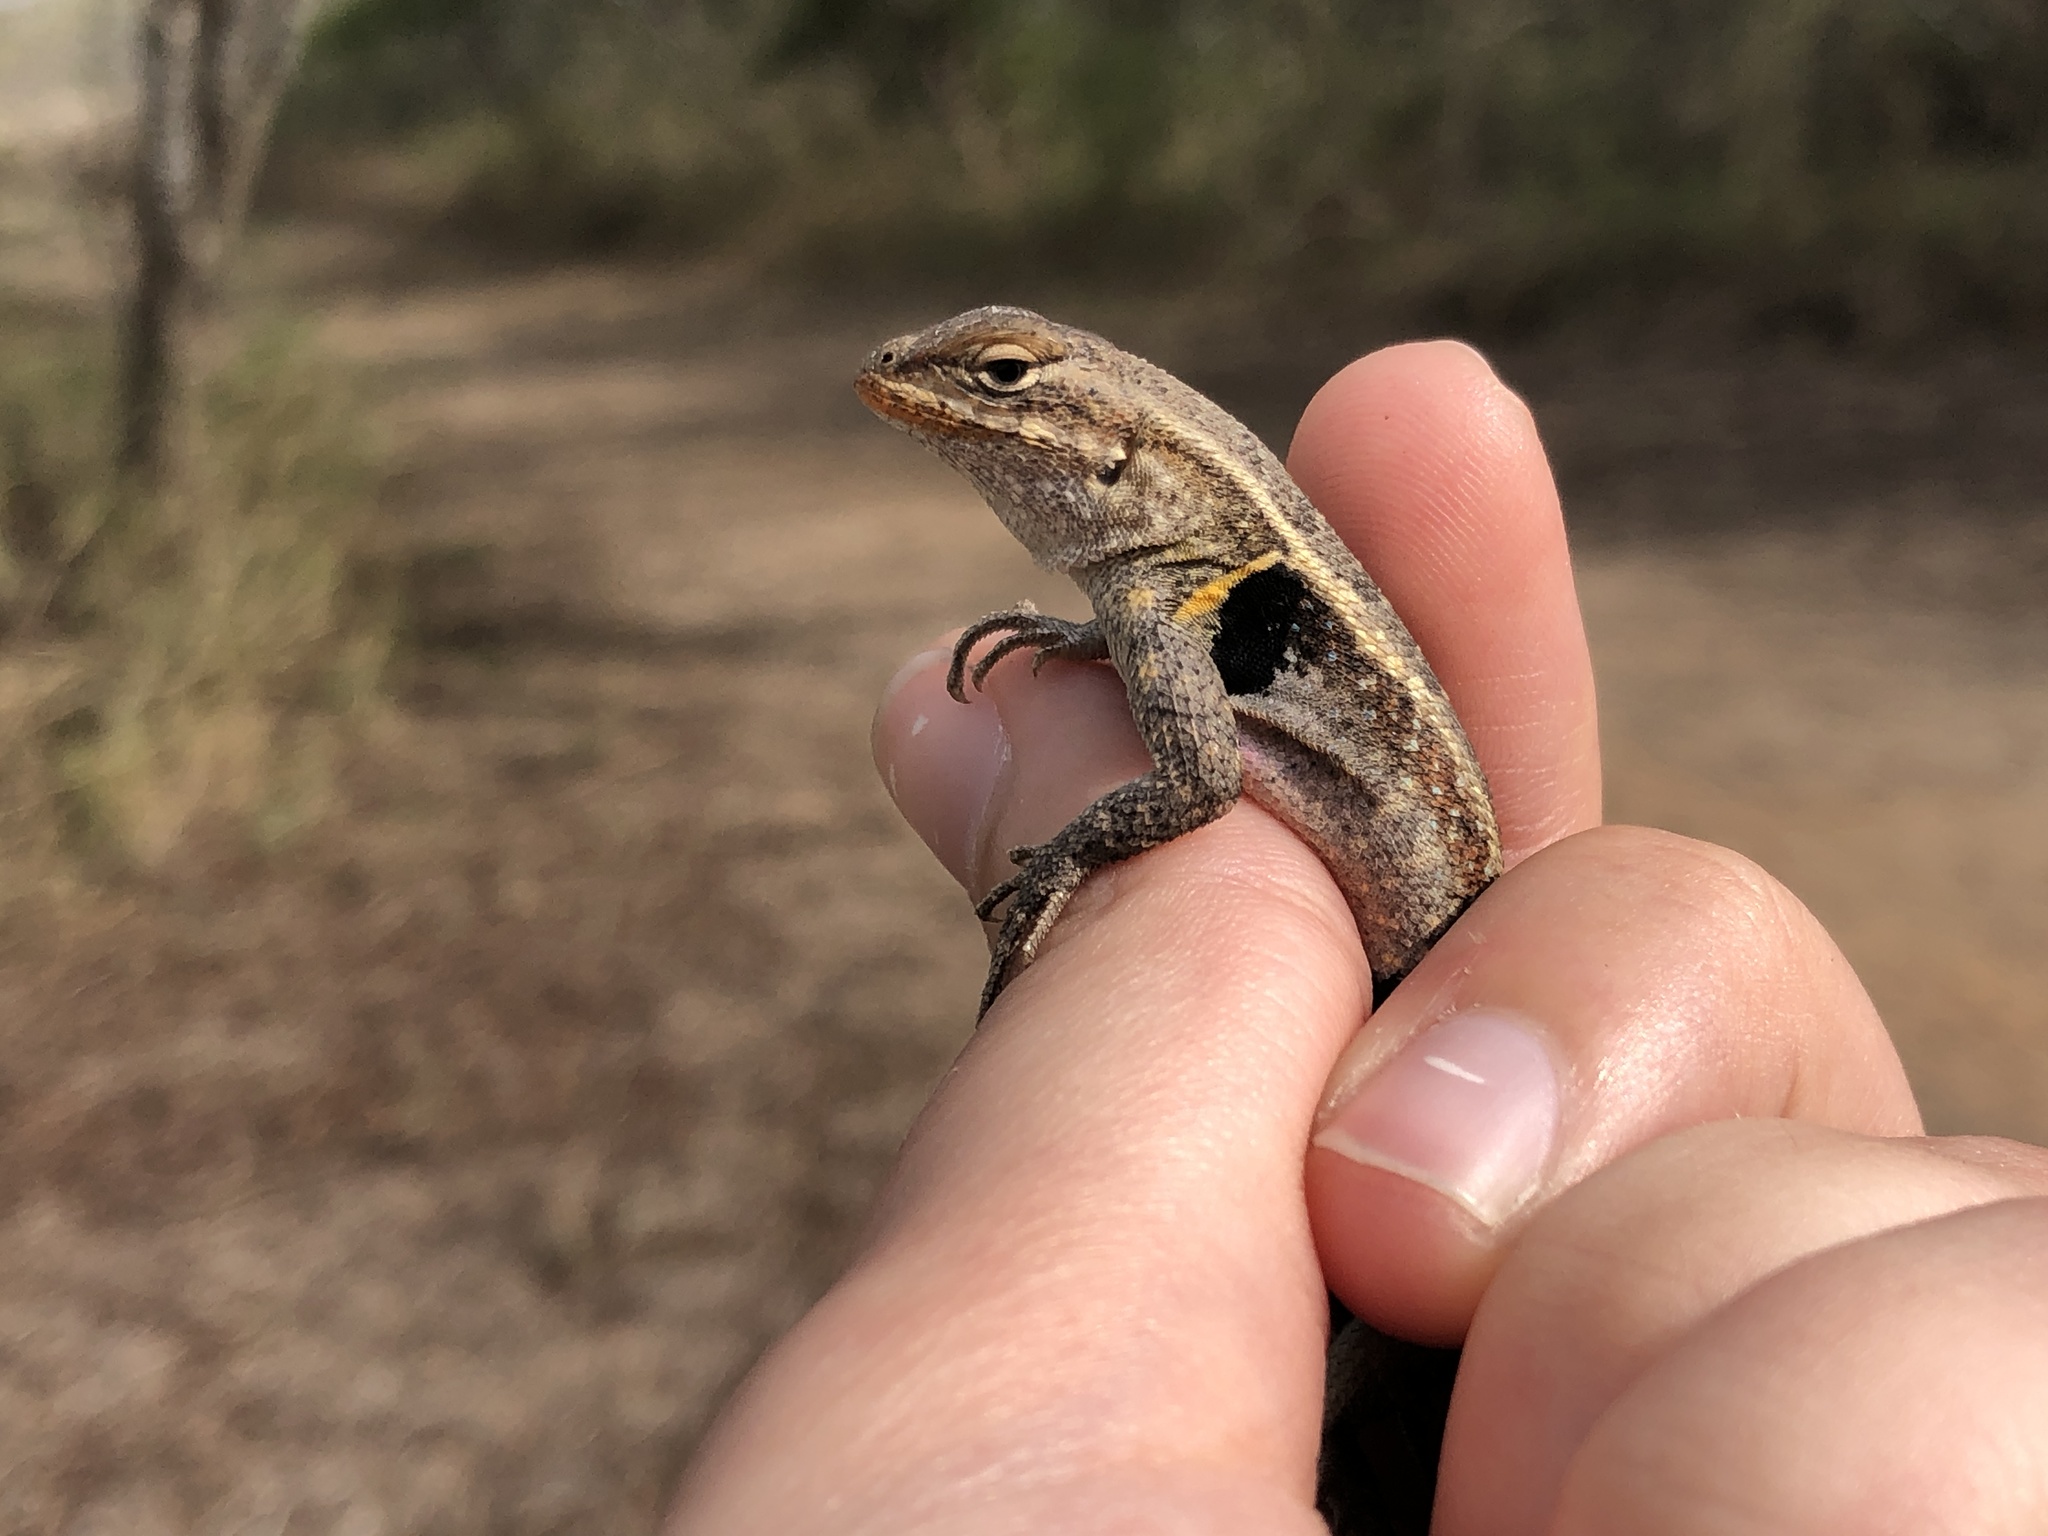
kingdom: Animalia
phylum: Chordata
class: Squamata
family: Phrynosomatidae
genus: Sceloporus
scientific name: Sceloporus variabilis
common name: Rosebelly lizard
